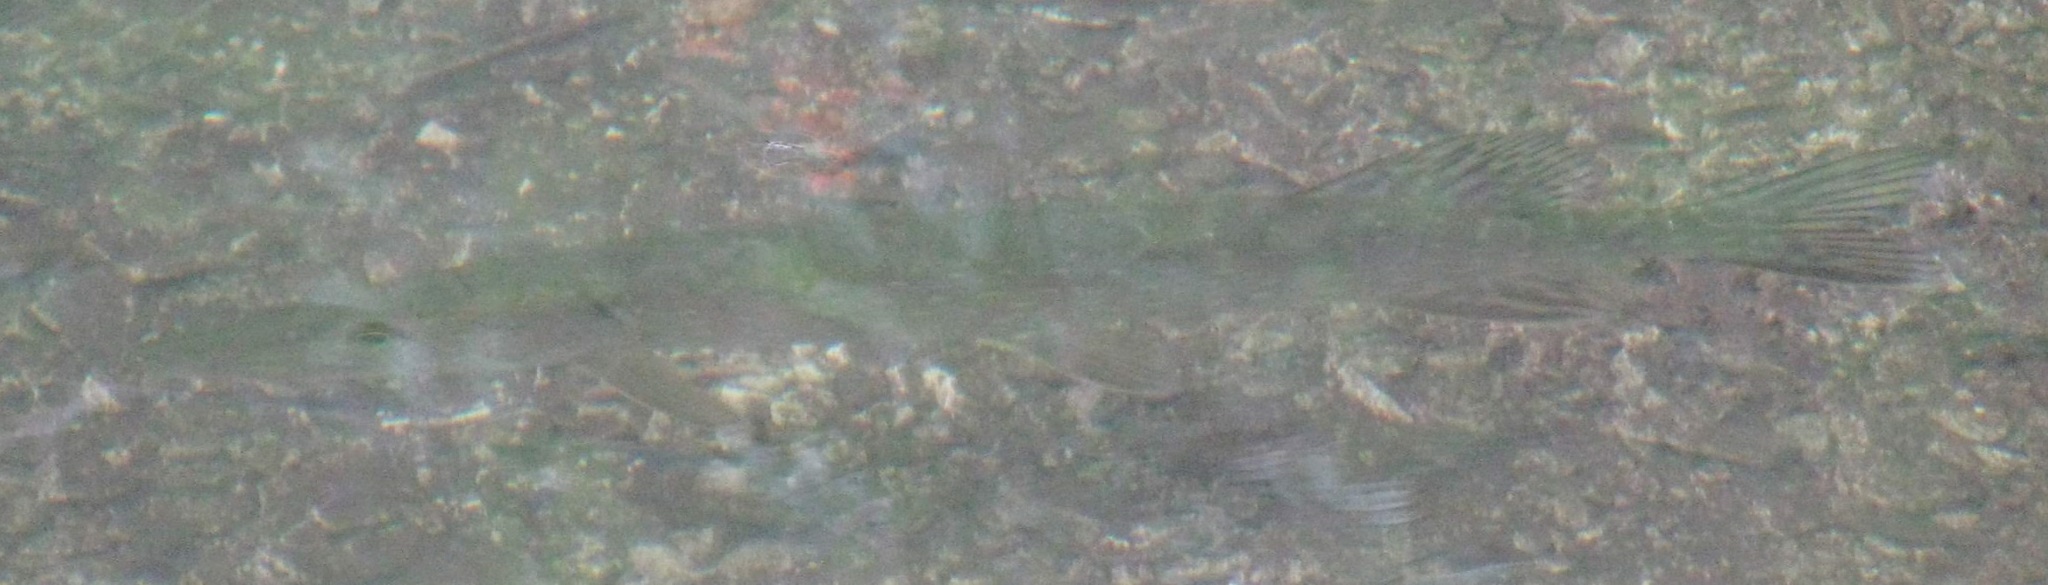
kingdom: Animalia
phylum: Chordata
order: Esociformes
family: Esocidae
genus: Esox
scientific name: Esox lucius
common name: Northern pike
